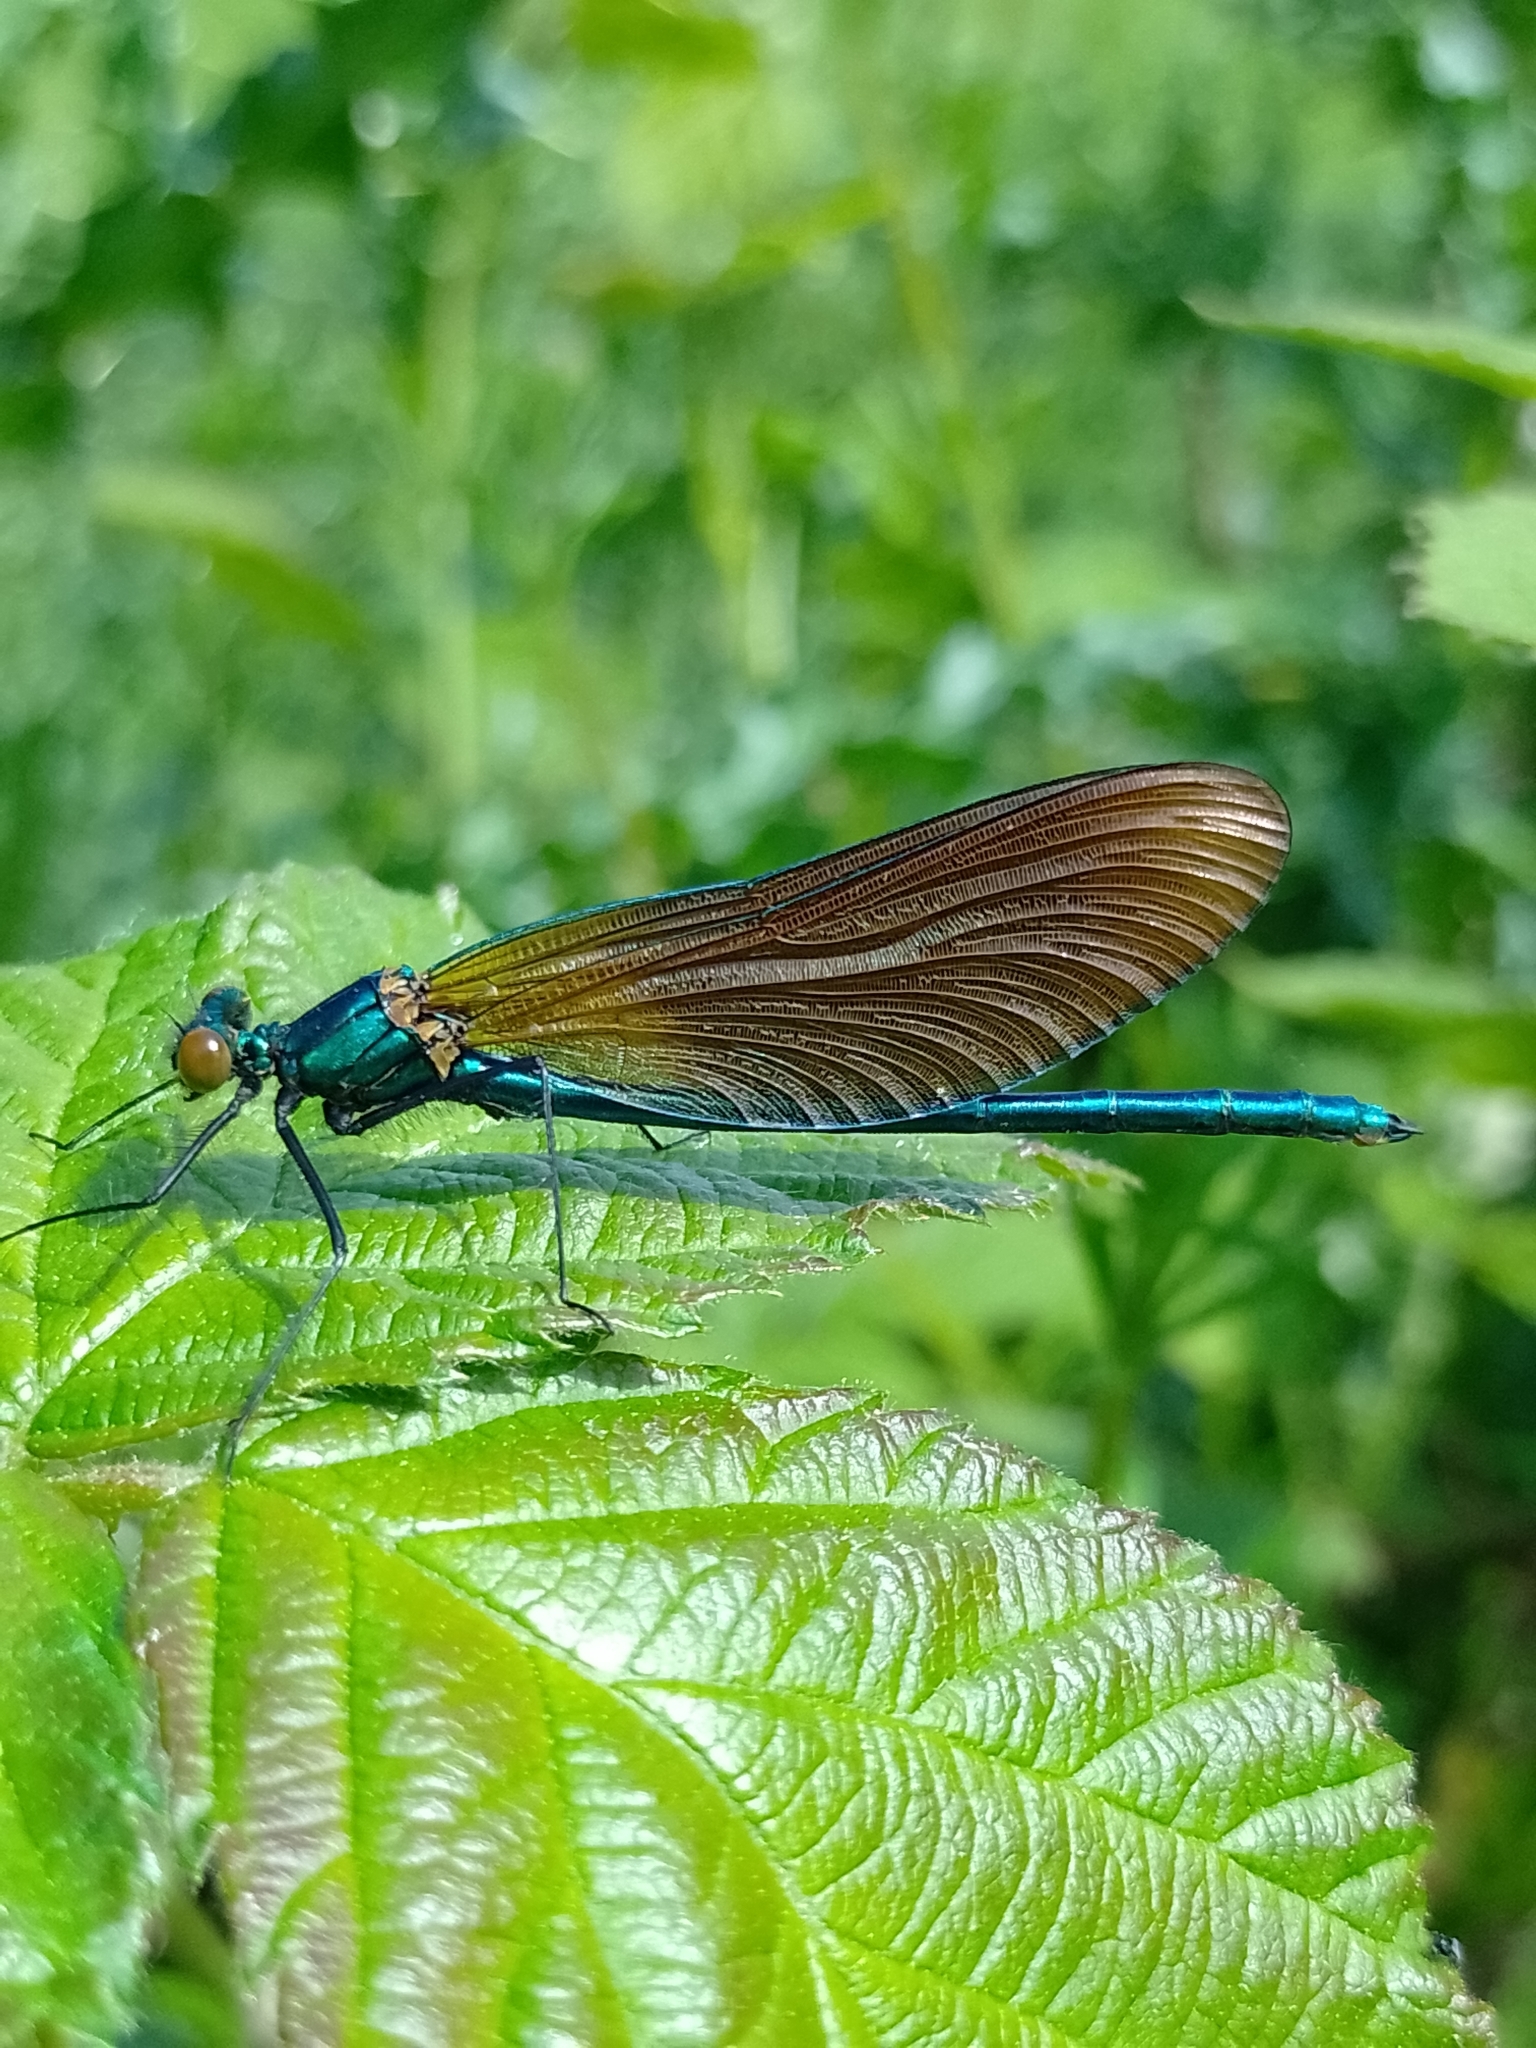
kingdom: Animalia
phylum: Arthropoda
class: Insecta
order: Odonata
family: Calopterygidae
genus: Calopteryx
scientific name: Calopteryx virgo
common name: Beautiful demoiselle
